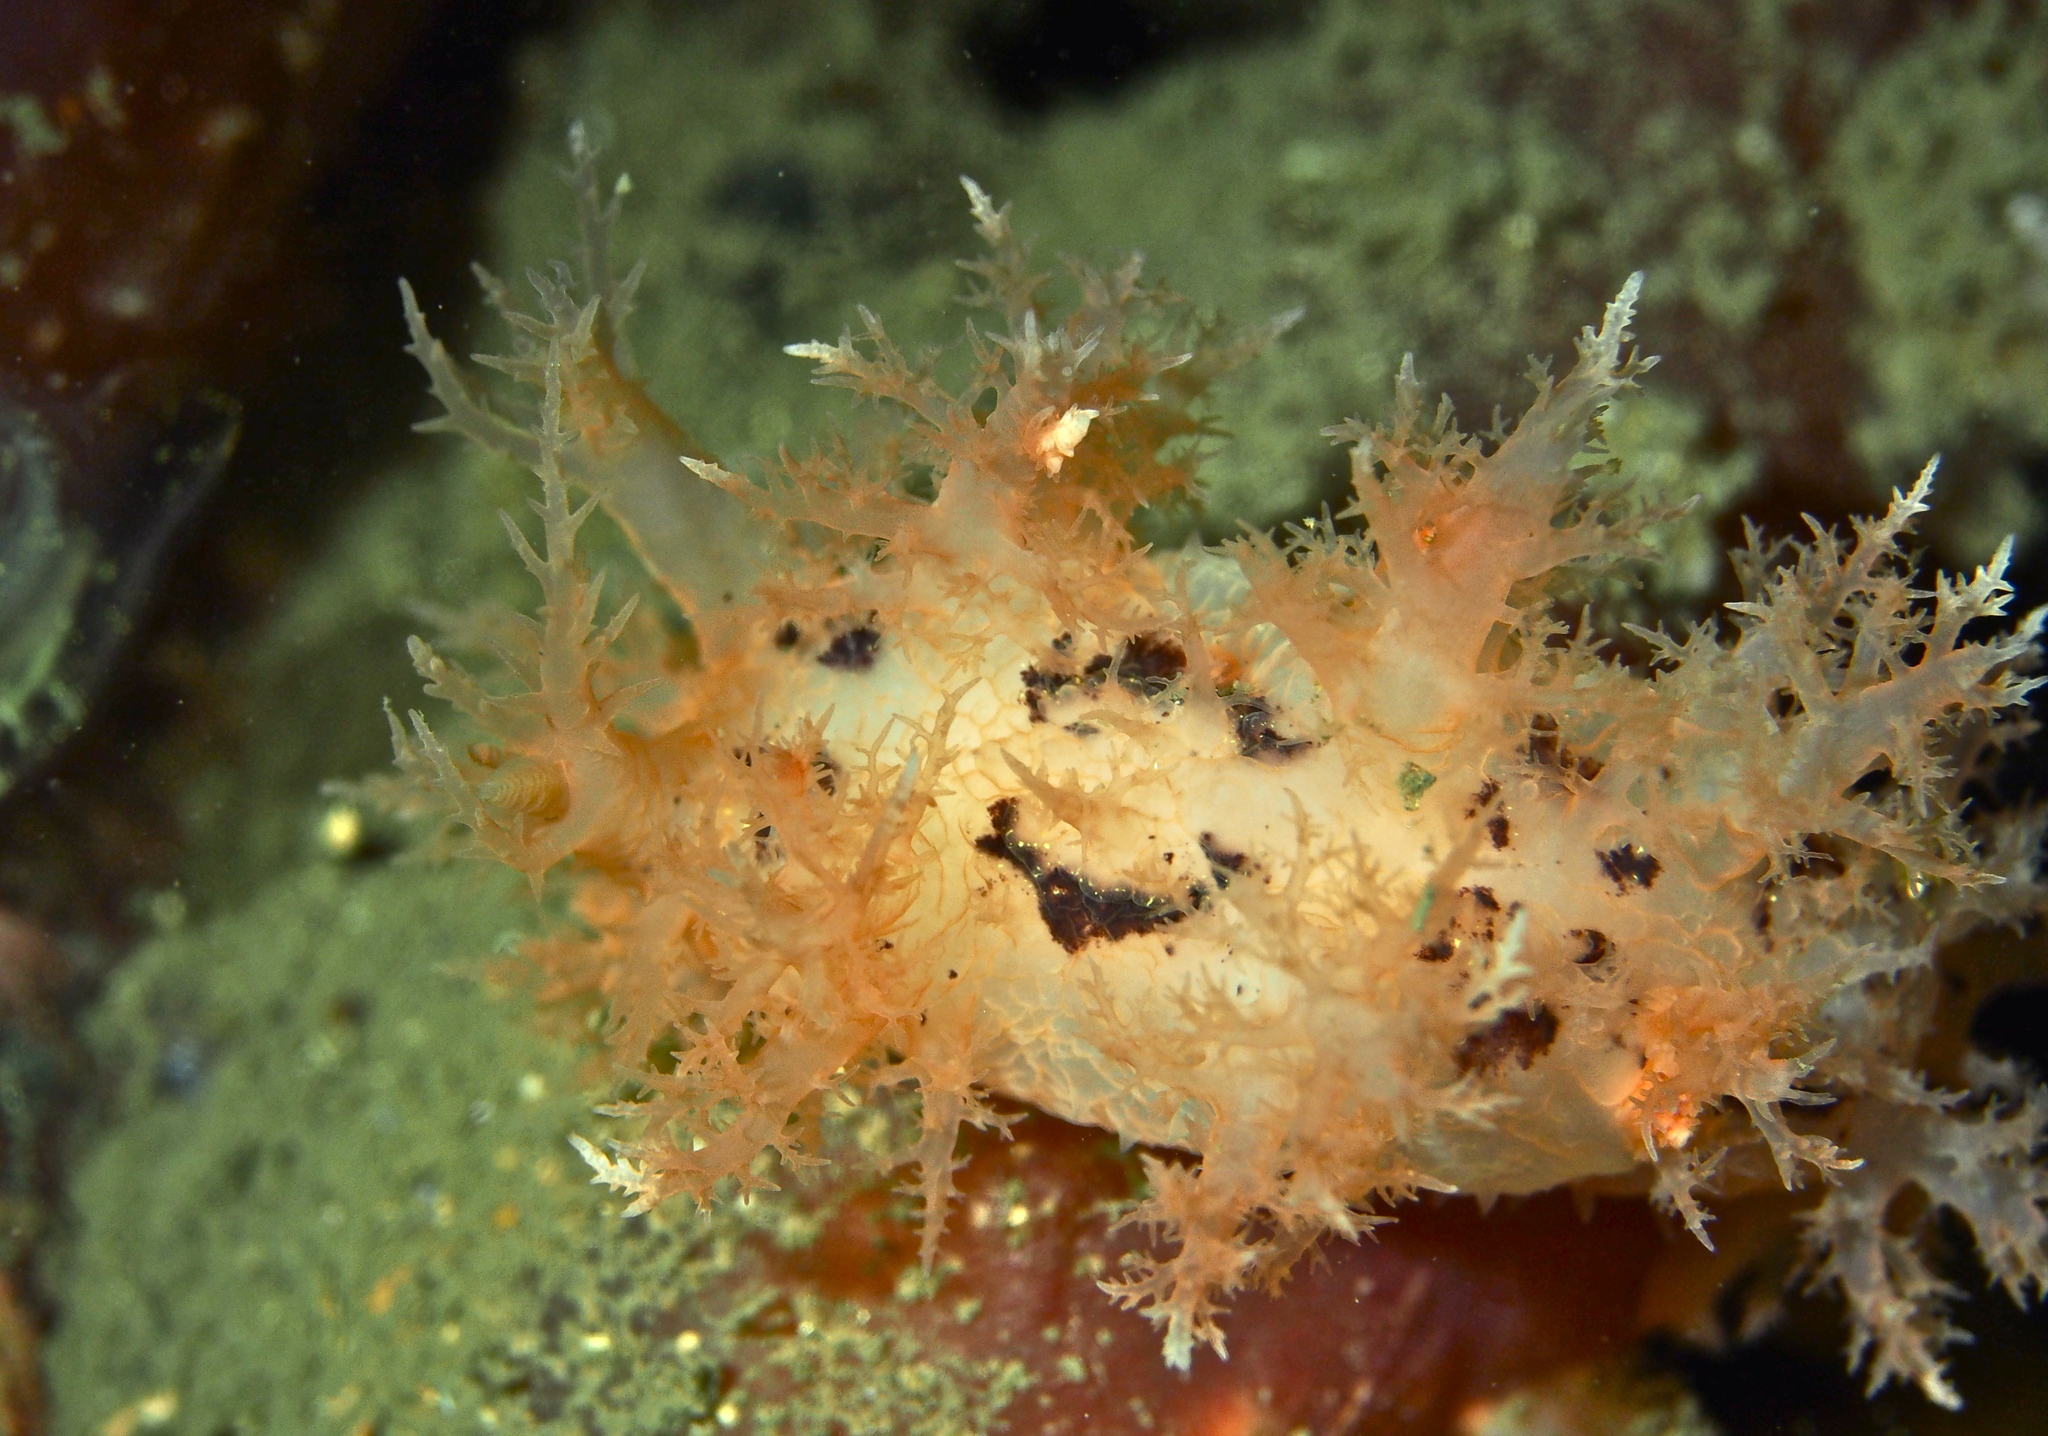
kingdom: Animalia
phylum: Mollusca
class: Gastropoda
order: Nudibranchia
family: Dendronotidae
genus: Dendronotus
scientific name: Dendronotus frondosus
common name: Bushy-backed nudibranch
